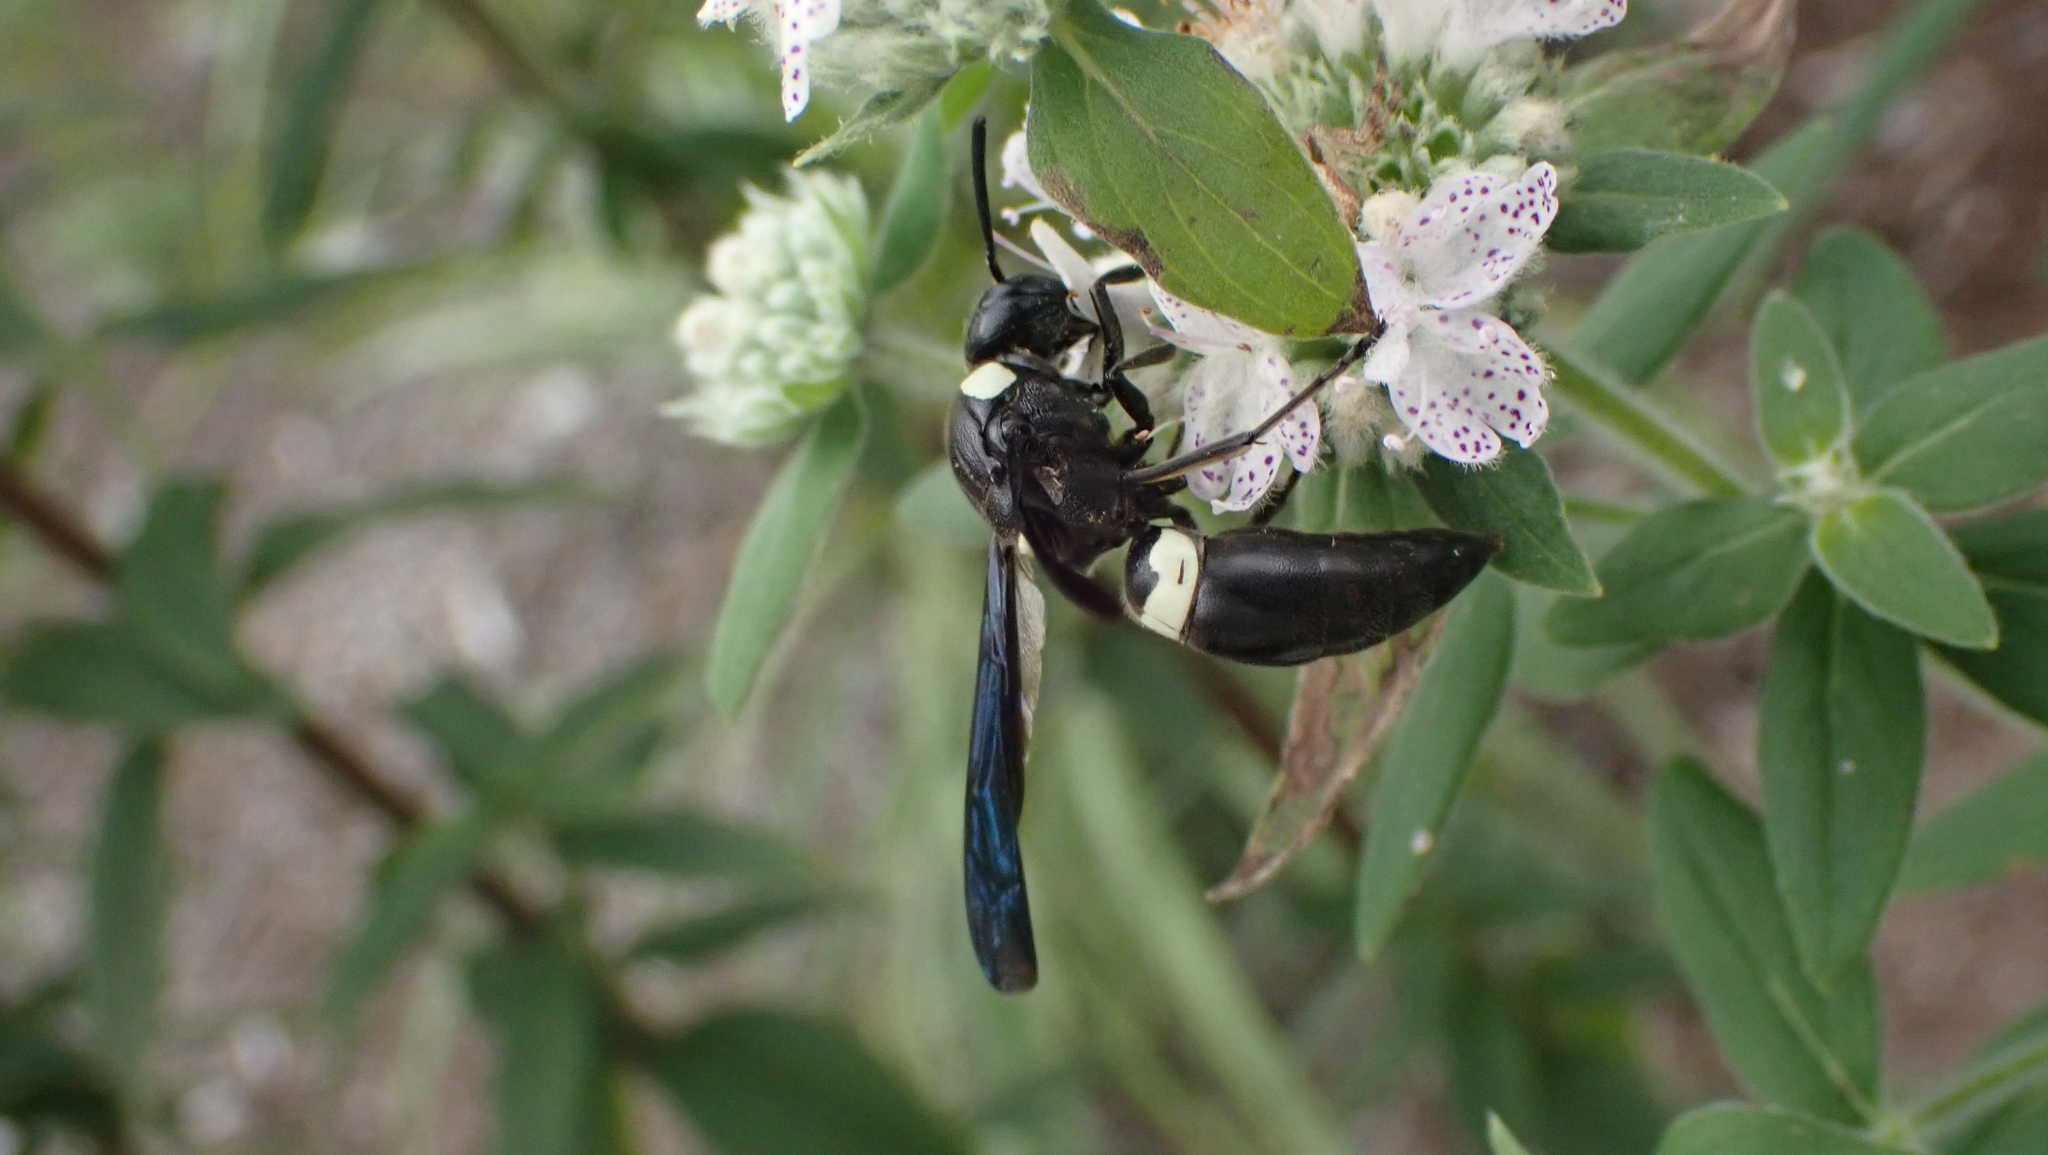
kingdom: Animalia
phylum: Arthropoda
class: Insecta
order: Hymenoptera
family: Eumenidae
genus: Monobia
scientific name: Monobia quadridens
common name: Four-toothed mason wasp
